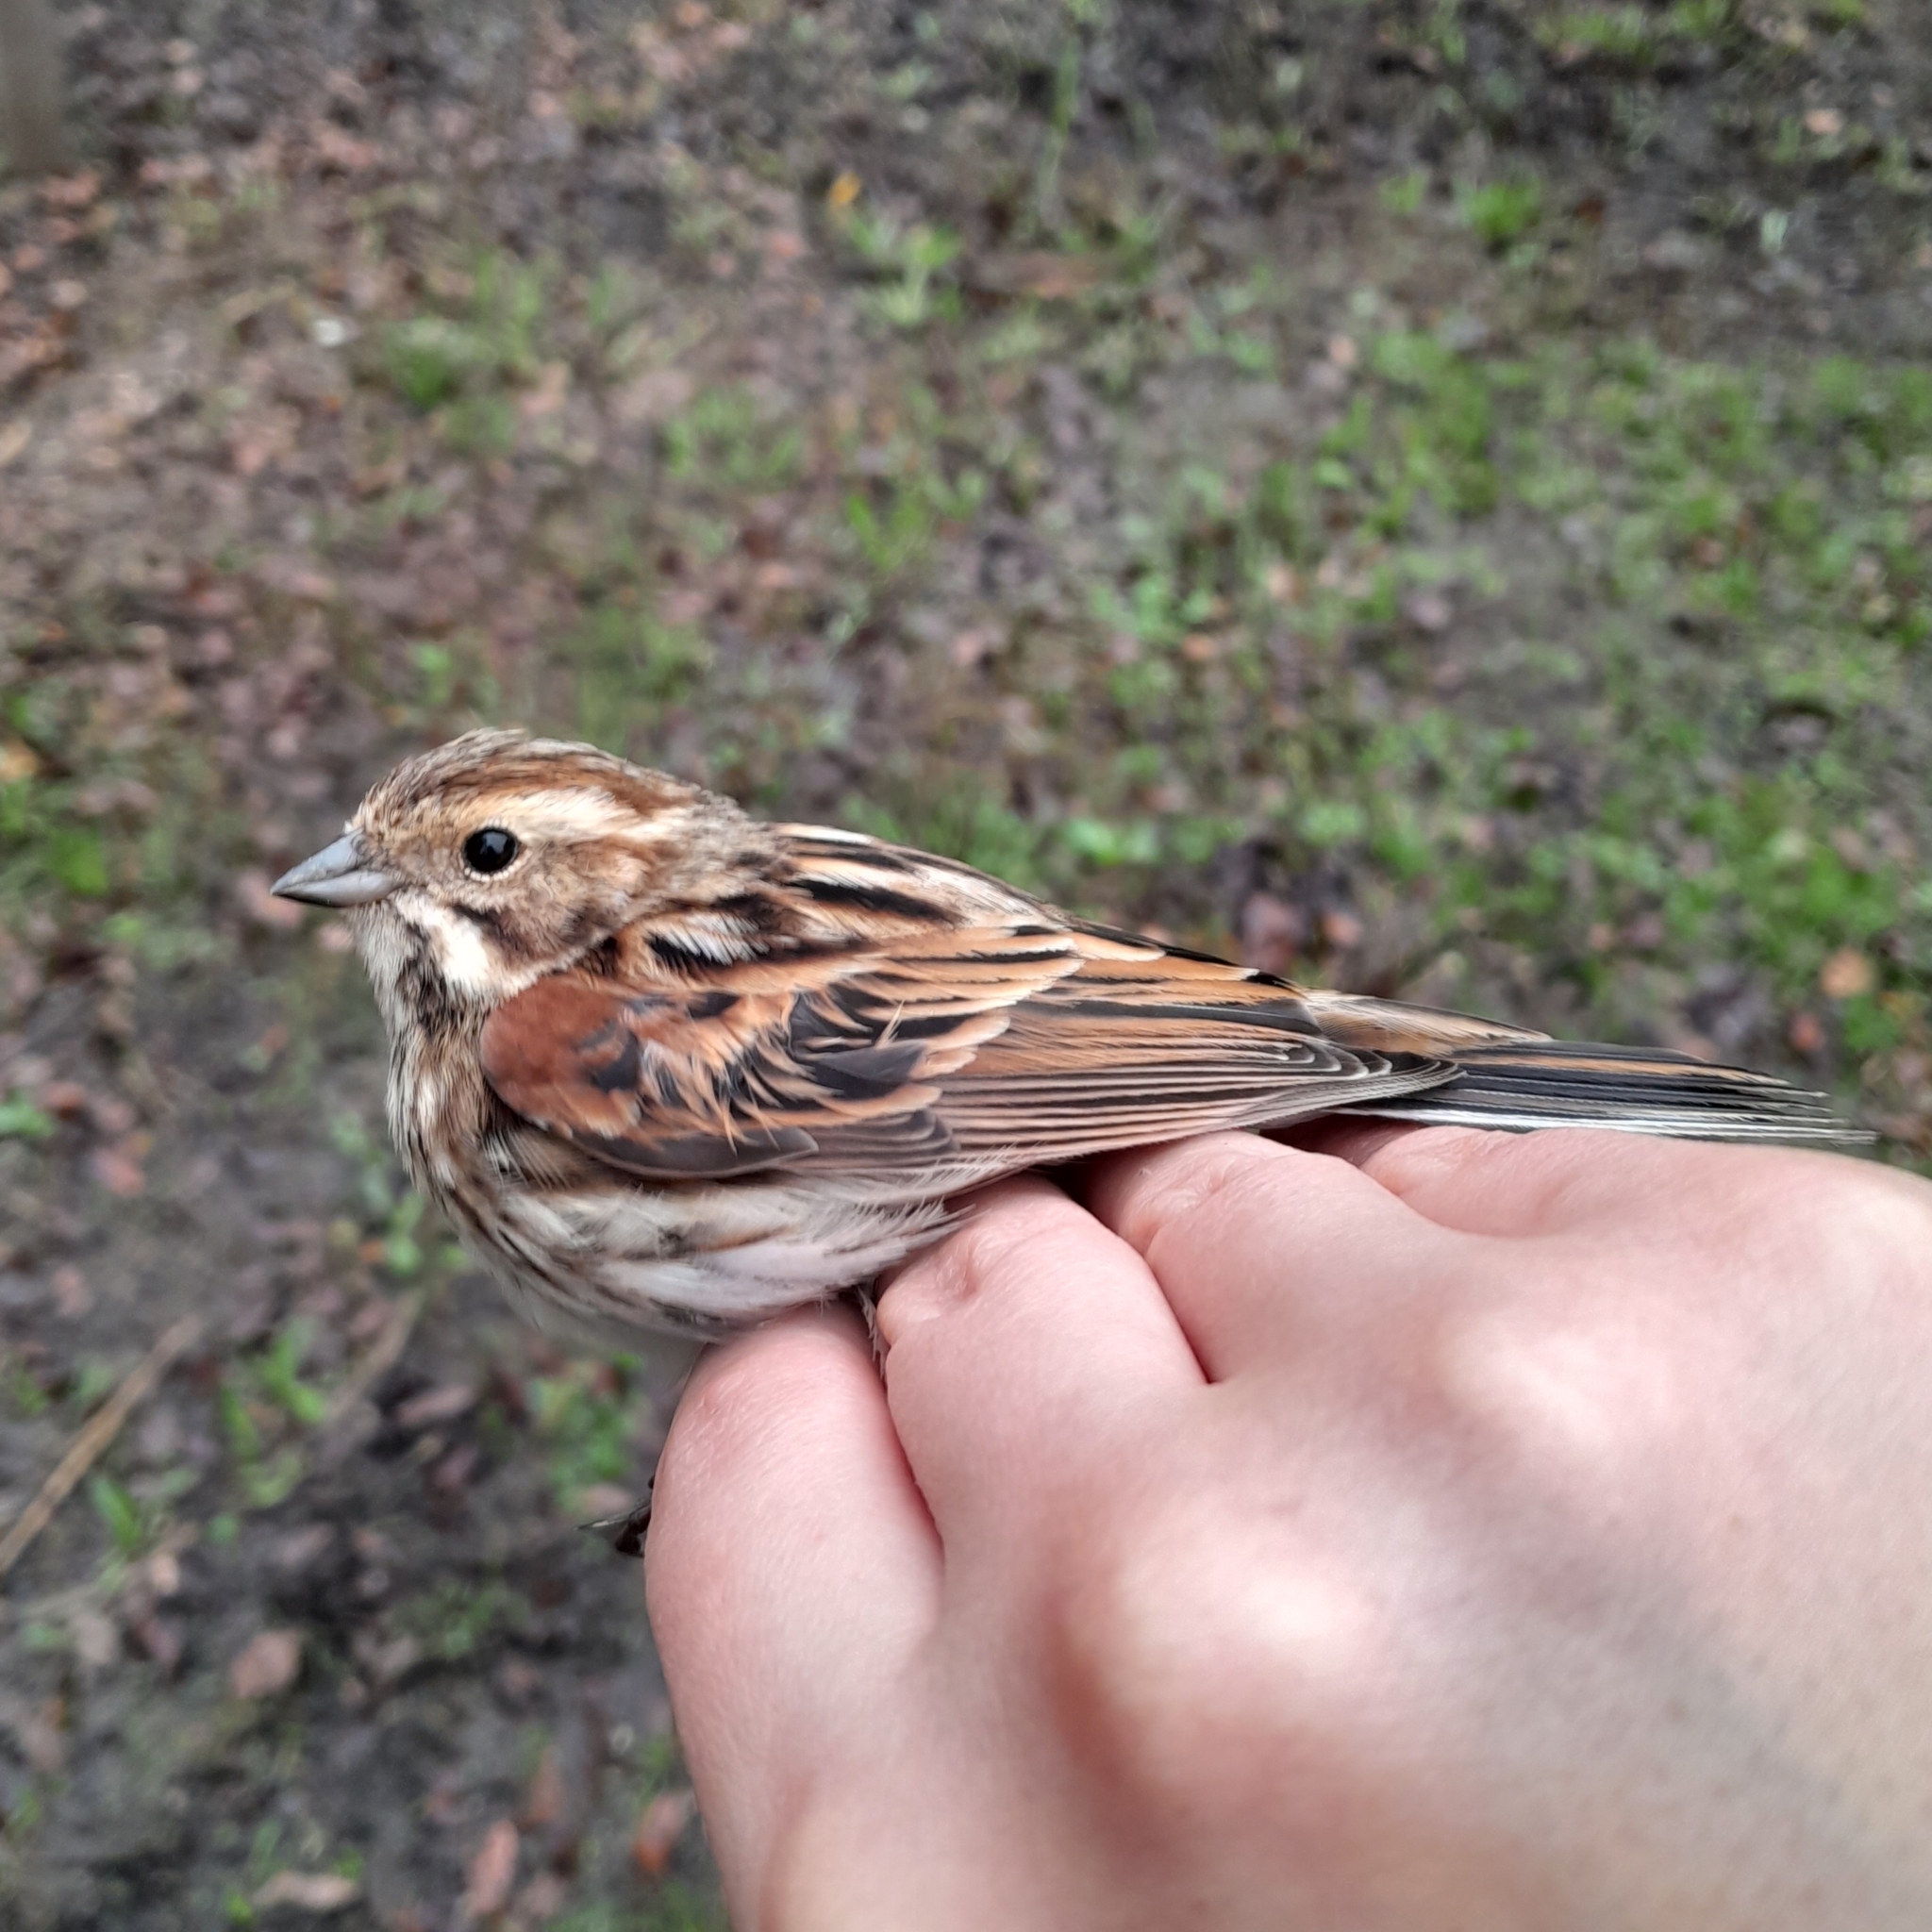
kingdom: Animalia
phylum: Chordata
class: Aves
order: Passeriformes
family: Emberizidae
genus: Emberiza
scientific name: Emberiza schoeniclus
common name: Reed bunting
